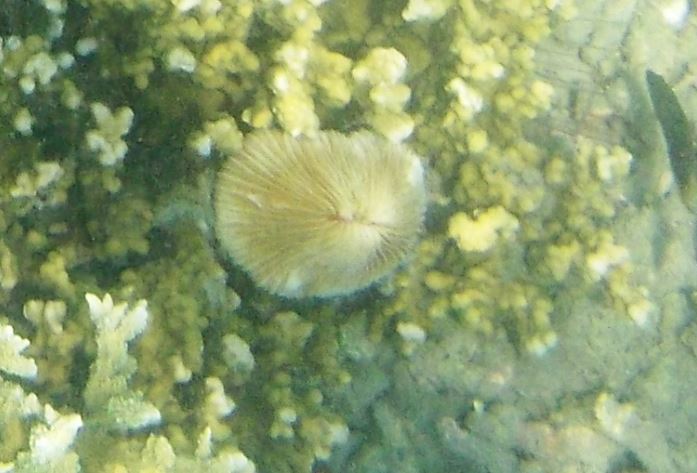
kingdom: Animalia
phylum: Cnidaria
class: Anthozoa
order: Scleractinia
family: Fungiidae
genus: Pleuractis
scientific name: Pleuractis paumotensis
